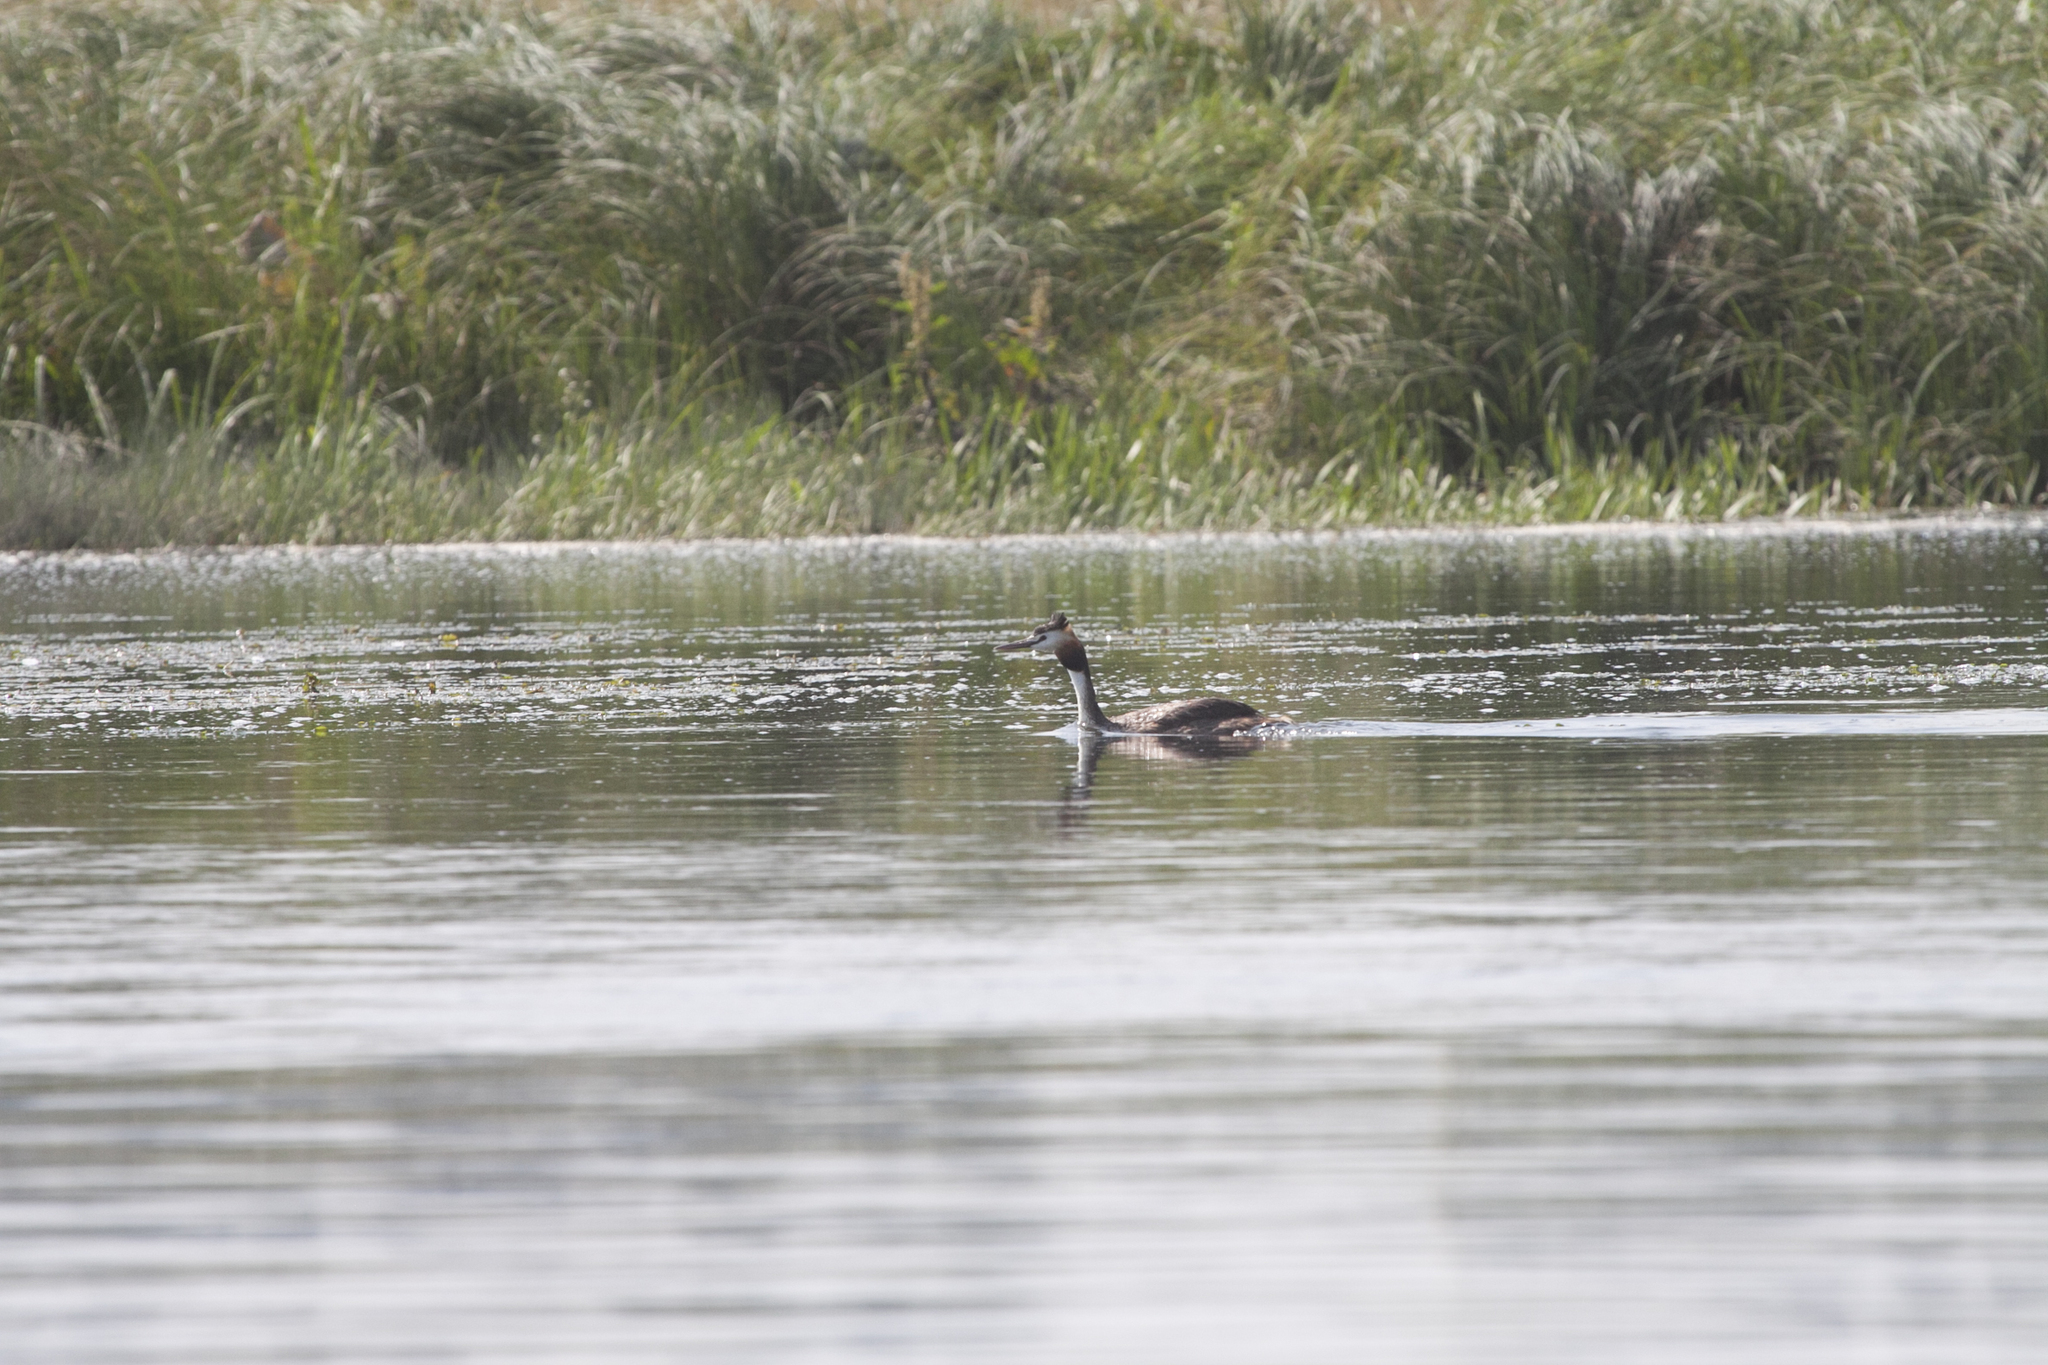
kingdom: Animalia
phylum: Chordata
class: Aves
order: Podicipediformes
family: Podicipedidae
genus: Podiceps
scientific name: Podiceps cristatus
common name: Great crested grebe
